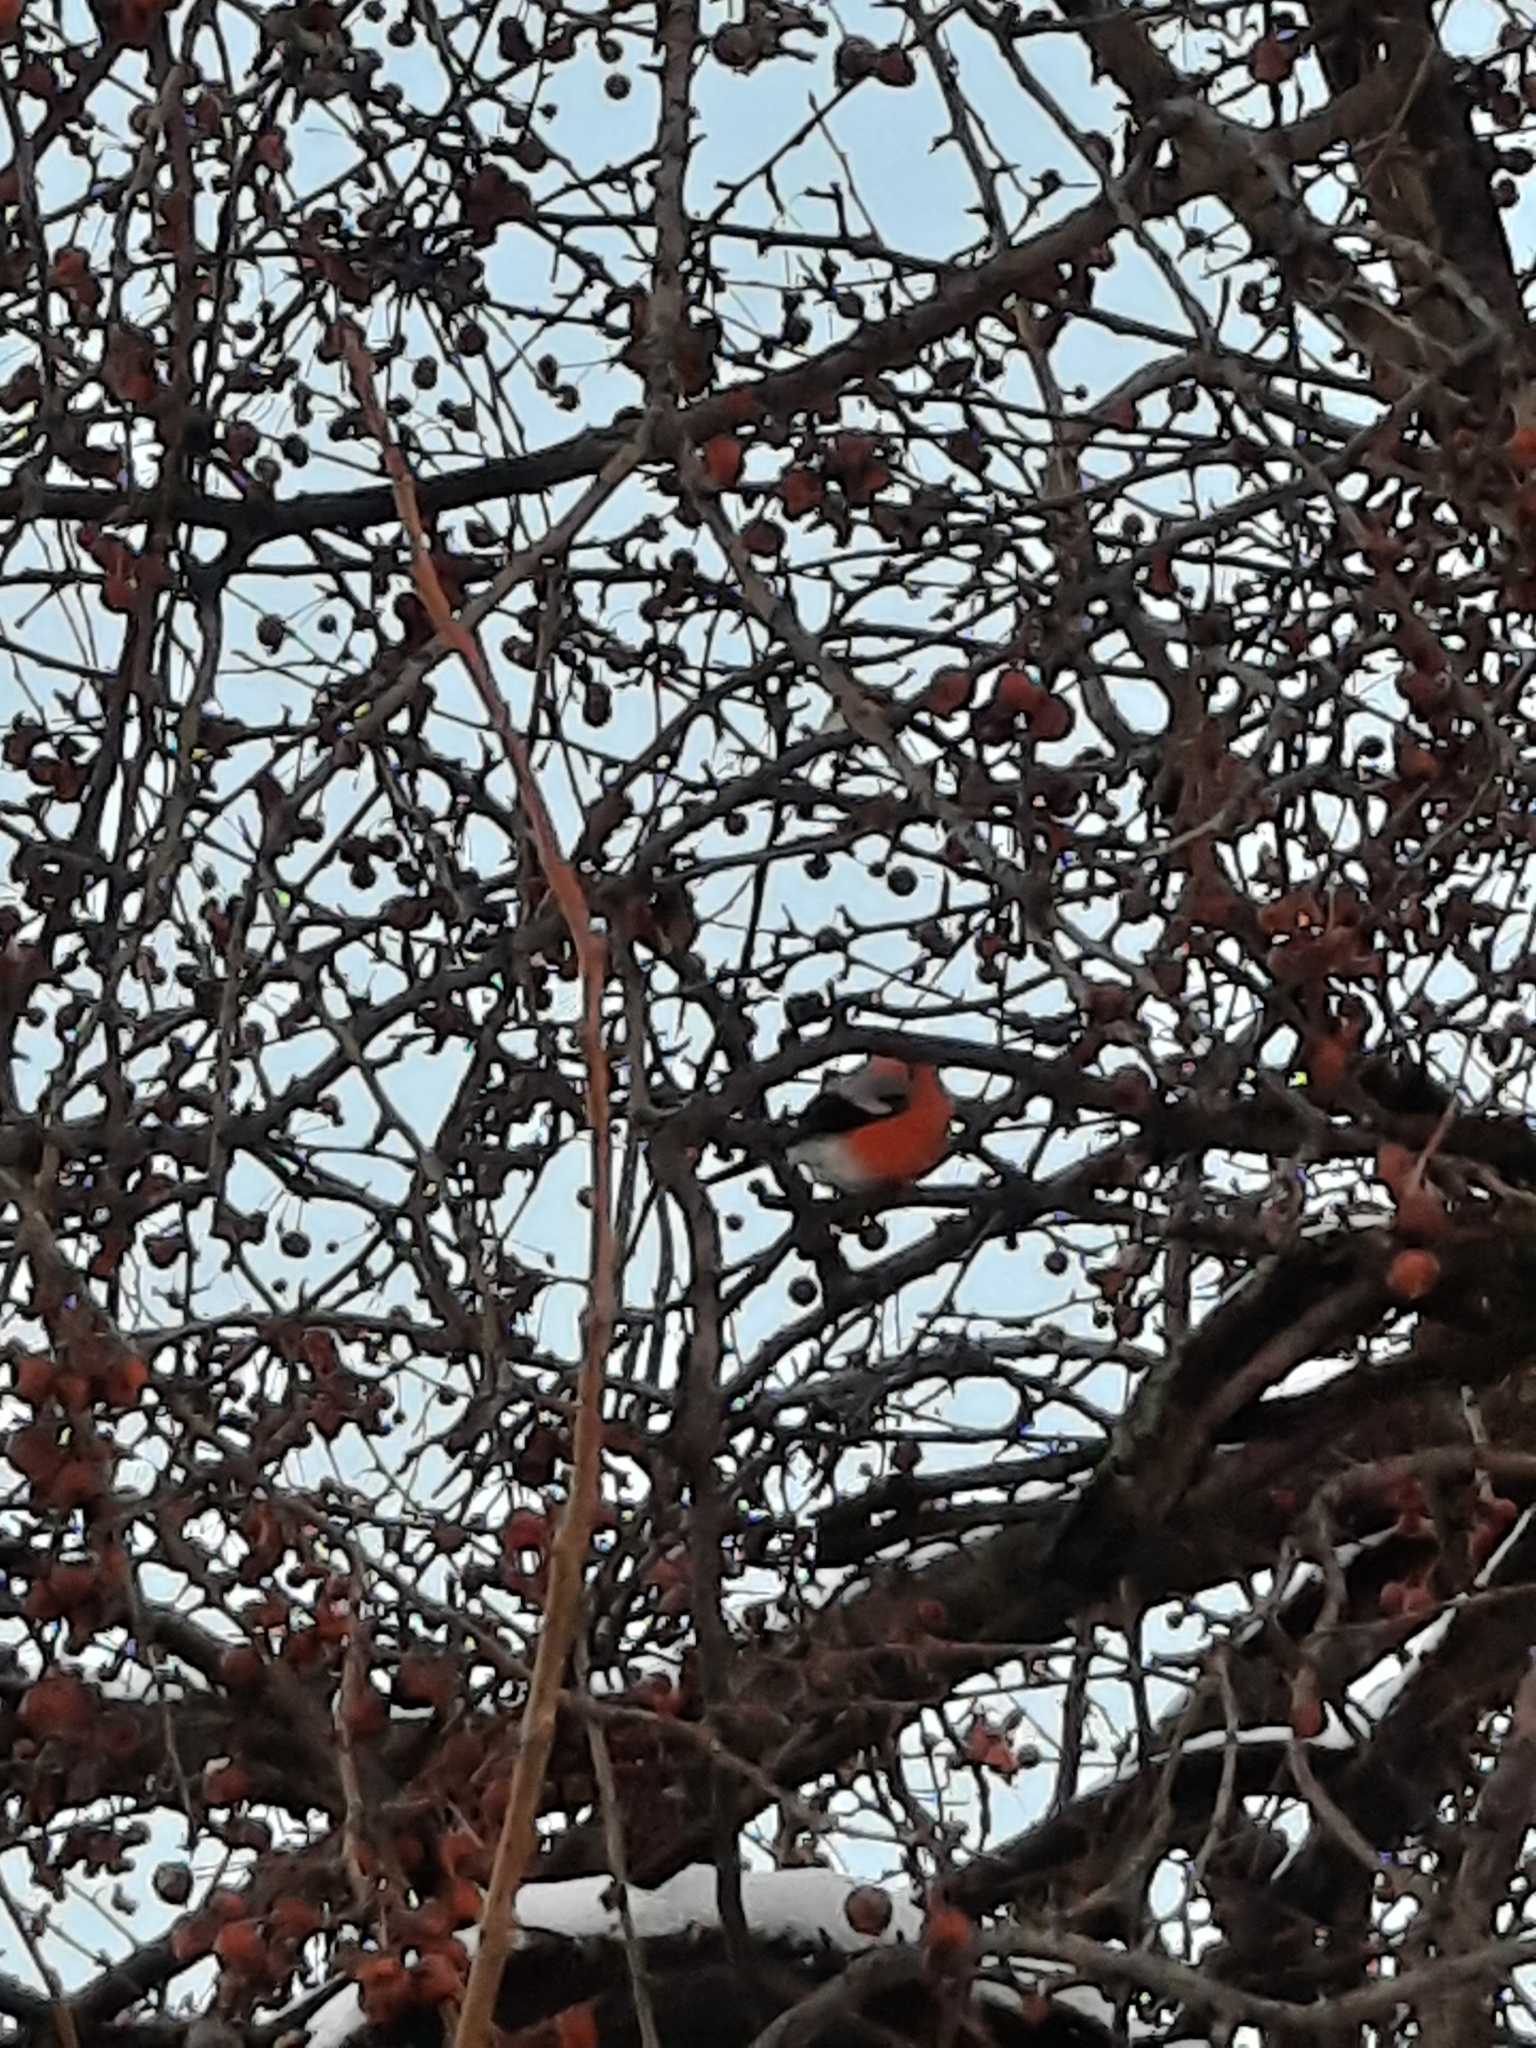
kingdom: Animalia
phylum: Chordata
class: Aves
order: Passeriformes
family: Fringillidae
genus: Pyrrhula
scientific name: Pyrrhula pyrrhula
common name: Eurasian bullfinch
